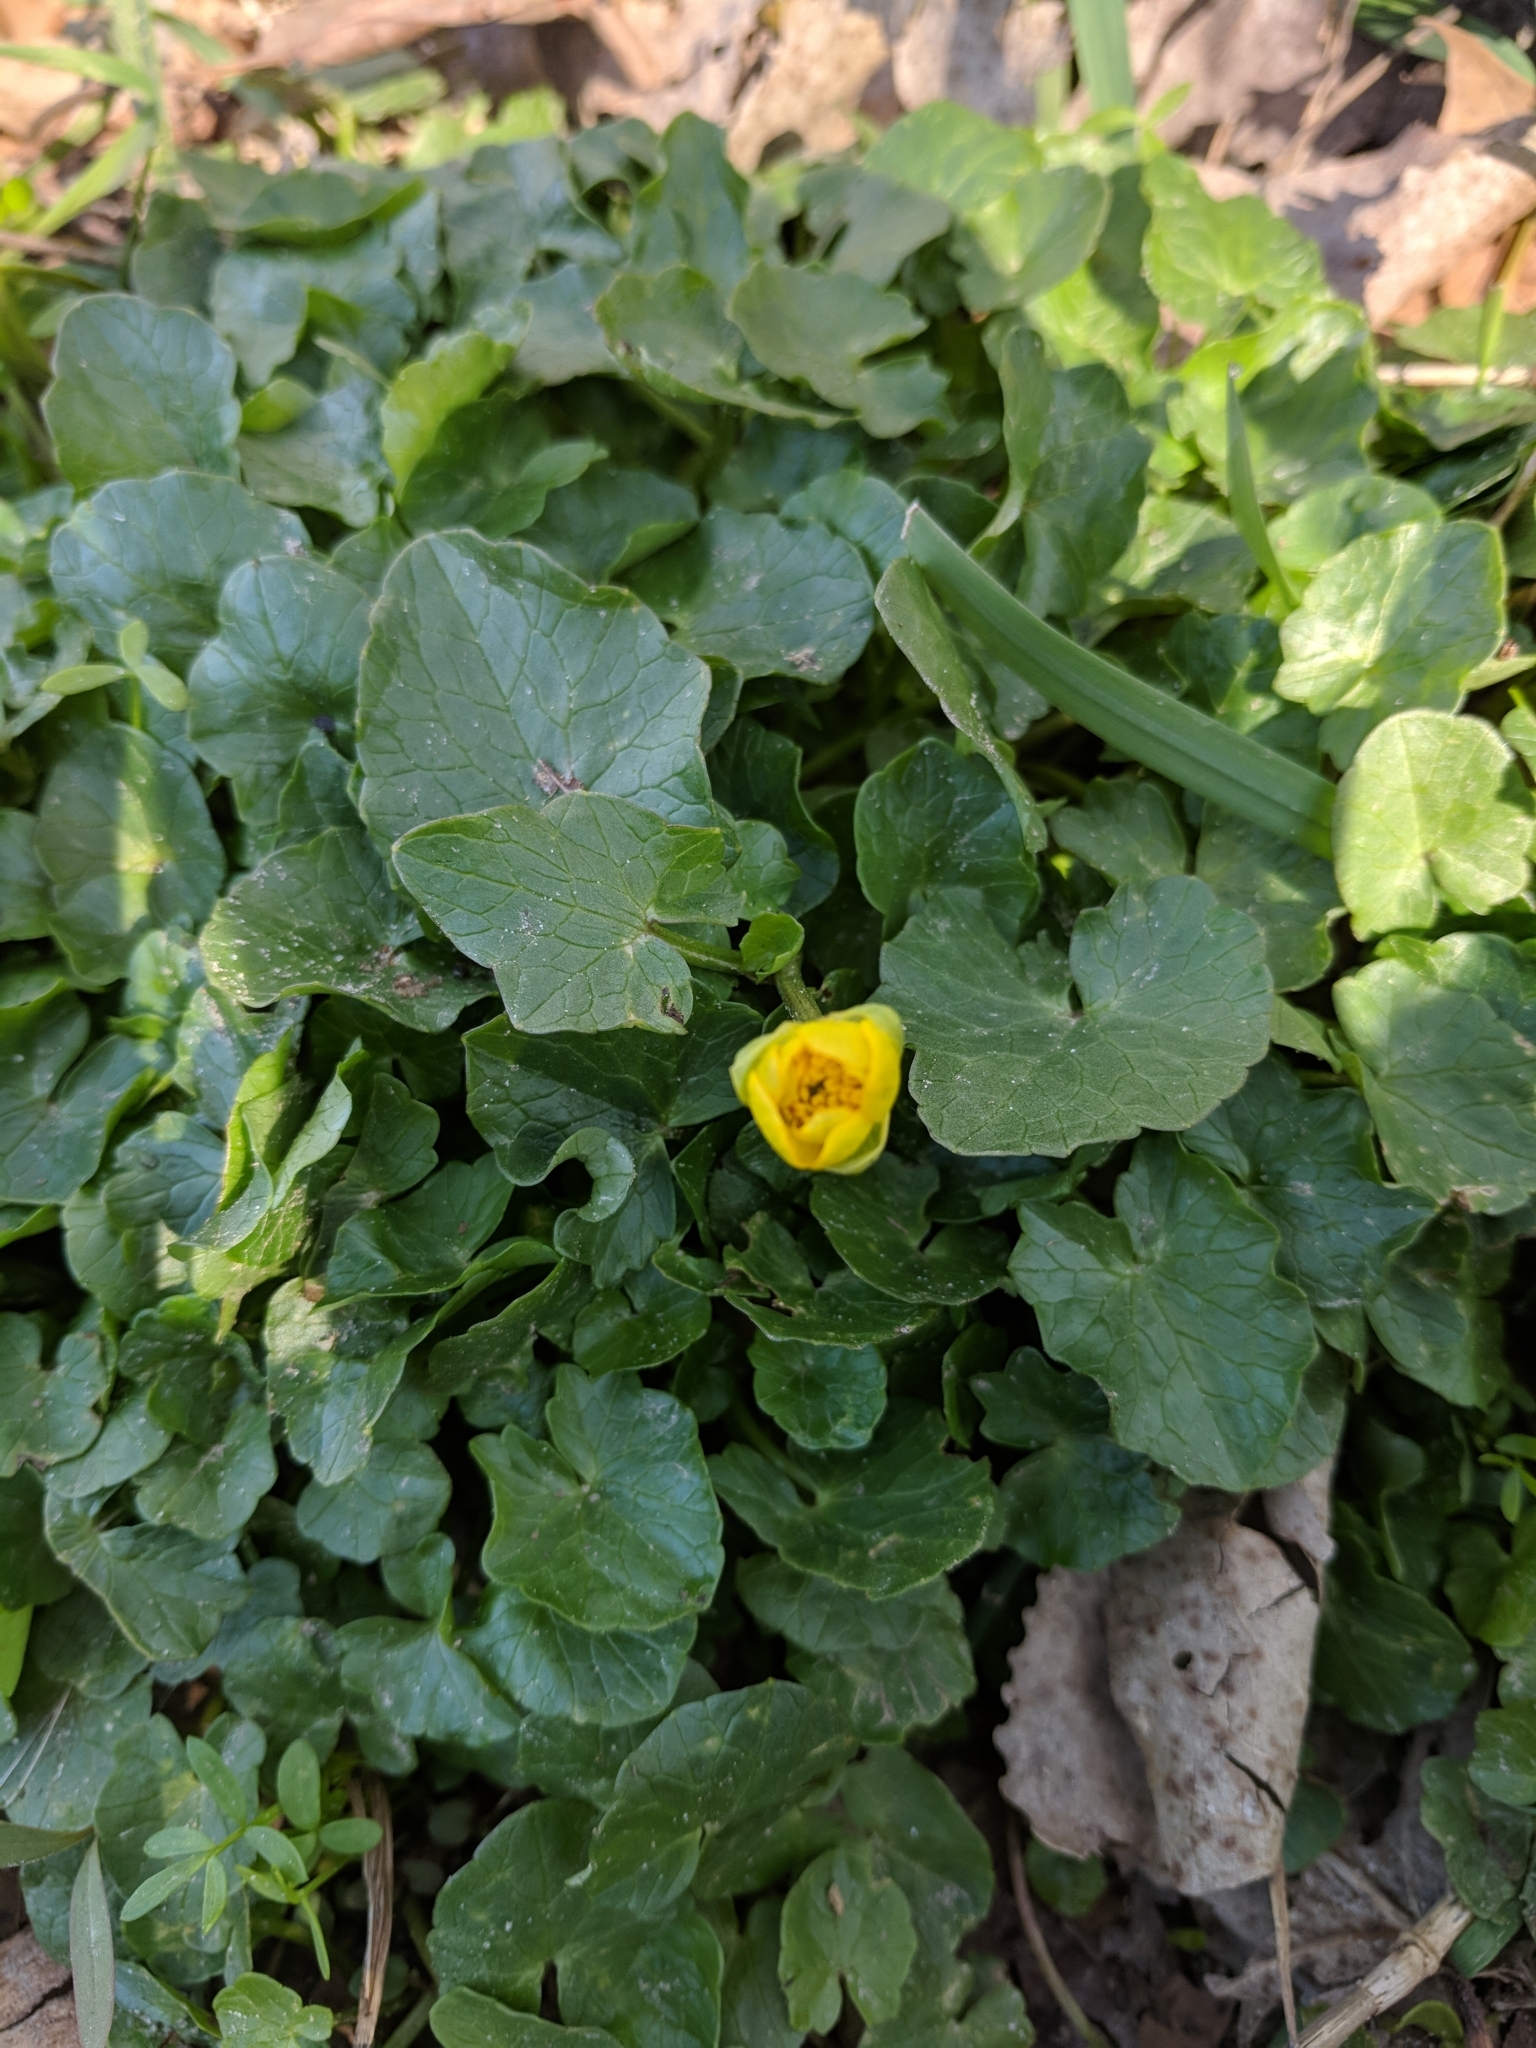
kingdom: Plantae
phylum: Tracheophyta
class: Magnoliopsida
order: Ranunculales
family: Ranunculaceae
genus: Ficaria
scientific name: Ficaria verna
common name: Lesser celandine
